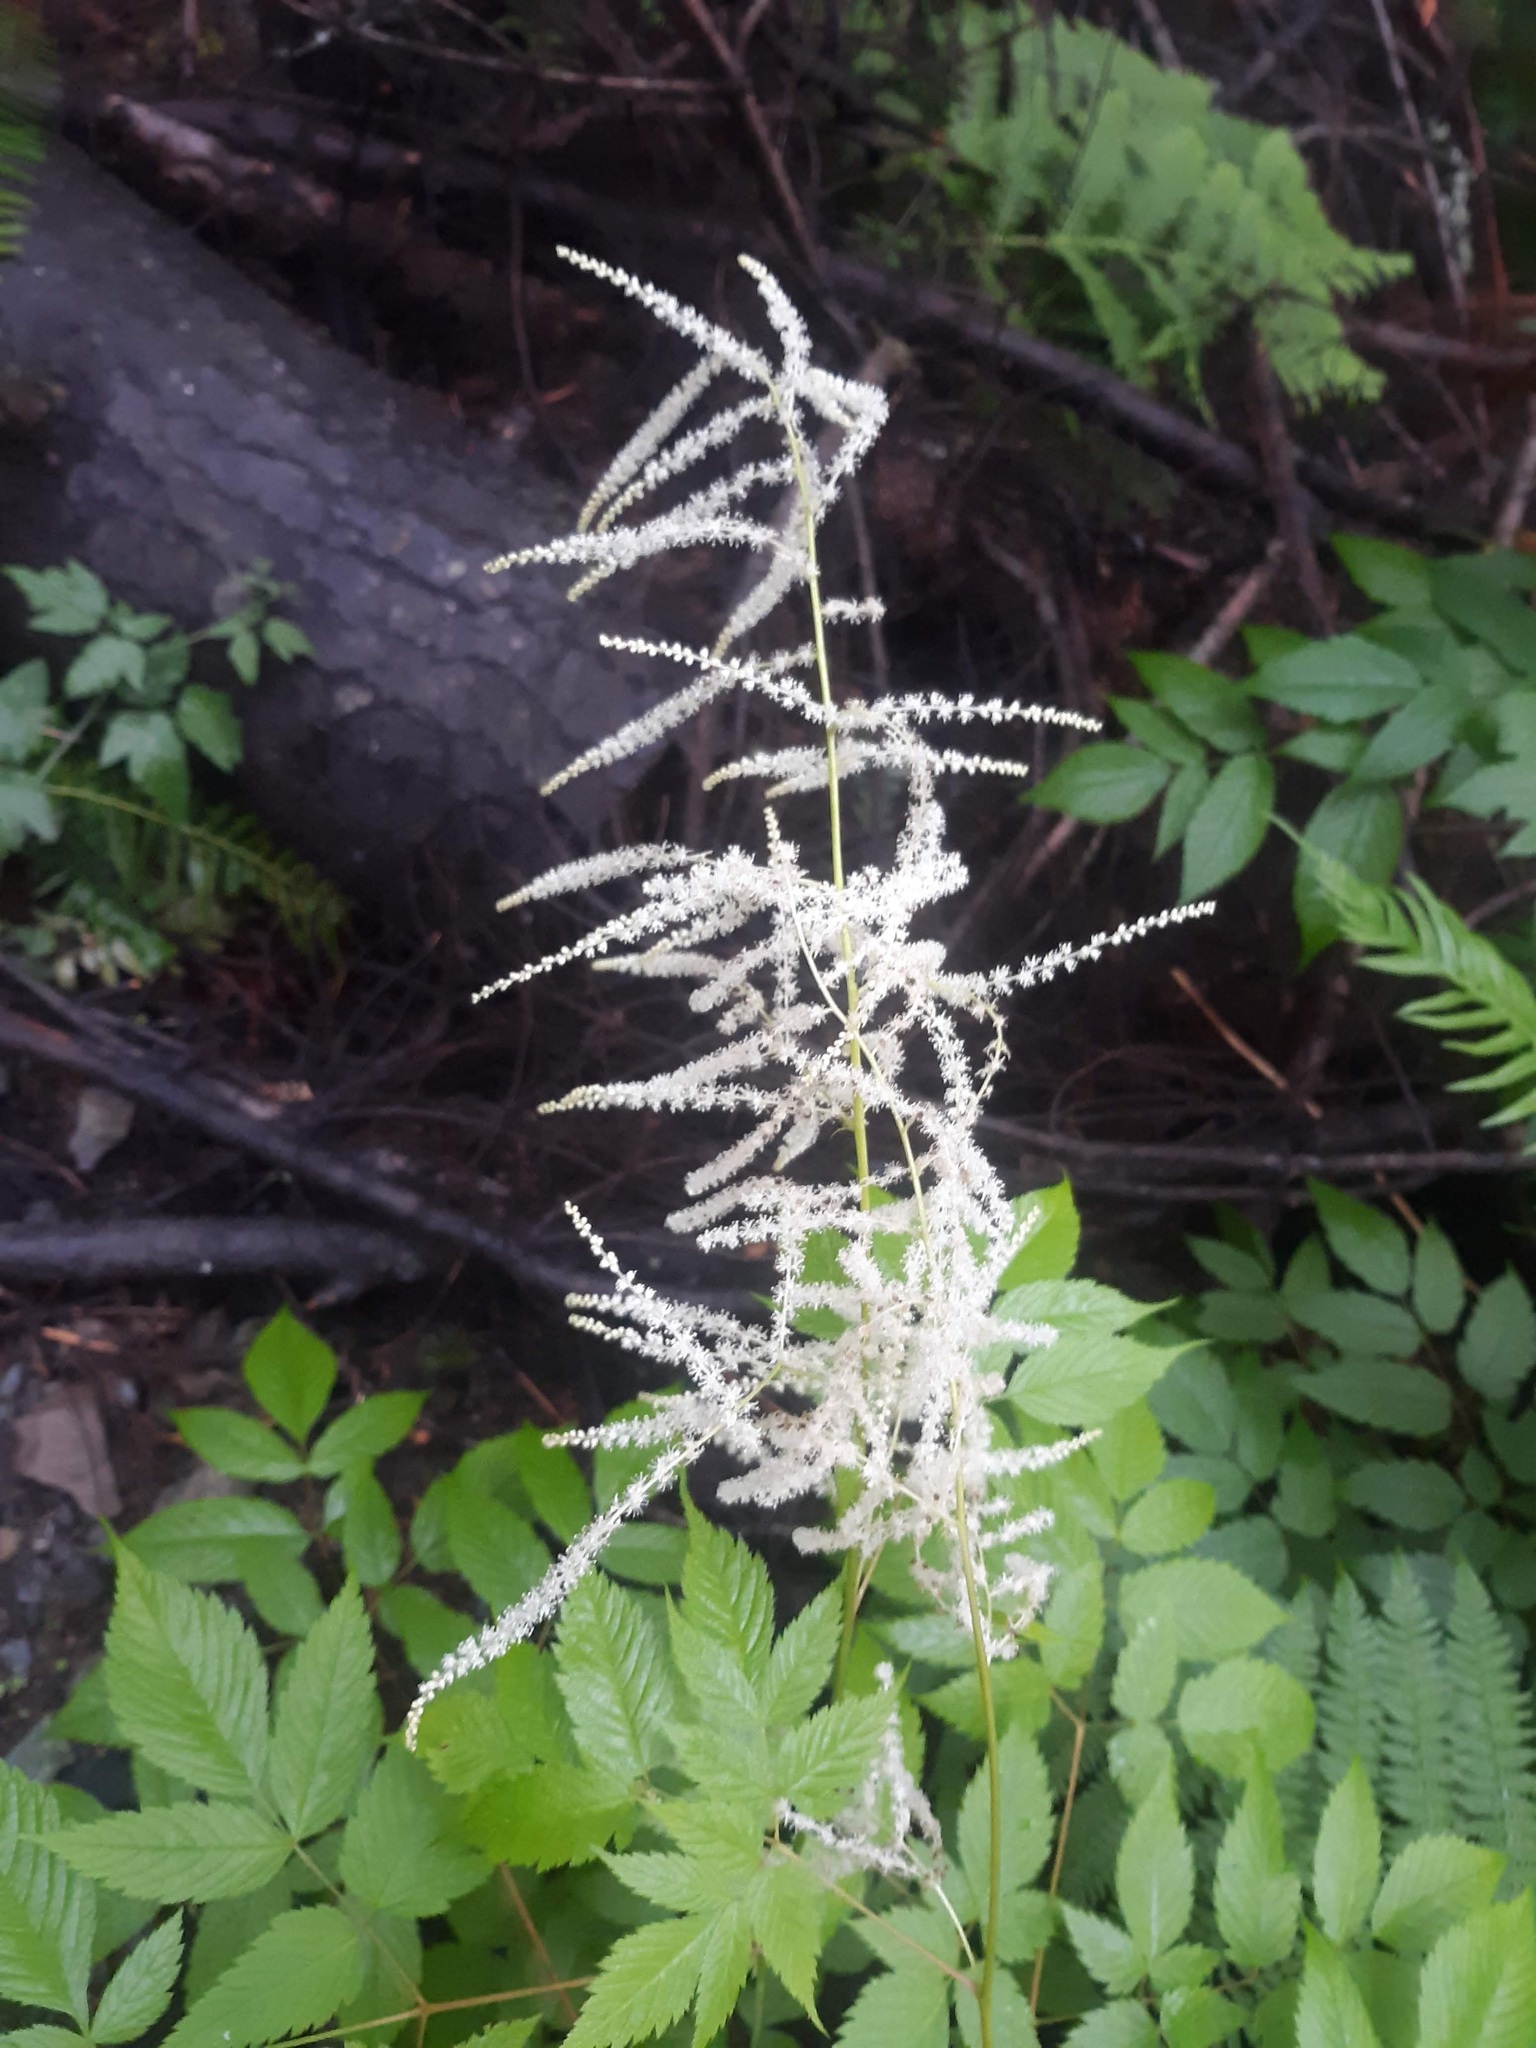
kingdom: Plantae
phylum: Tracheophyta
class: Magnoliopsida
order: Rosales
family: Rosaceae
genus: Aruncus
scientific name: Aruncus dioicus
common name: Buck's-beard
